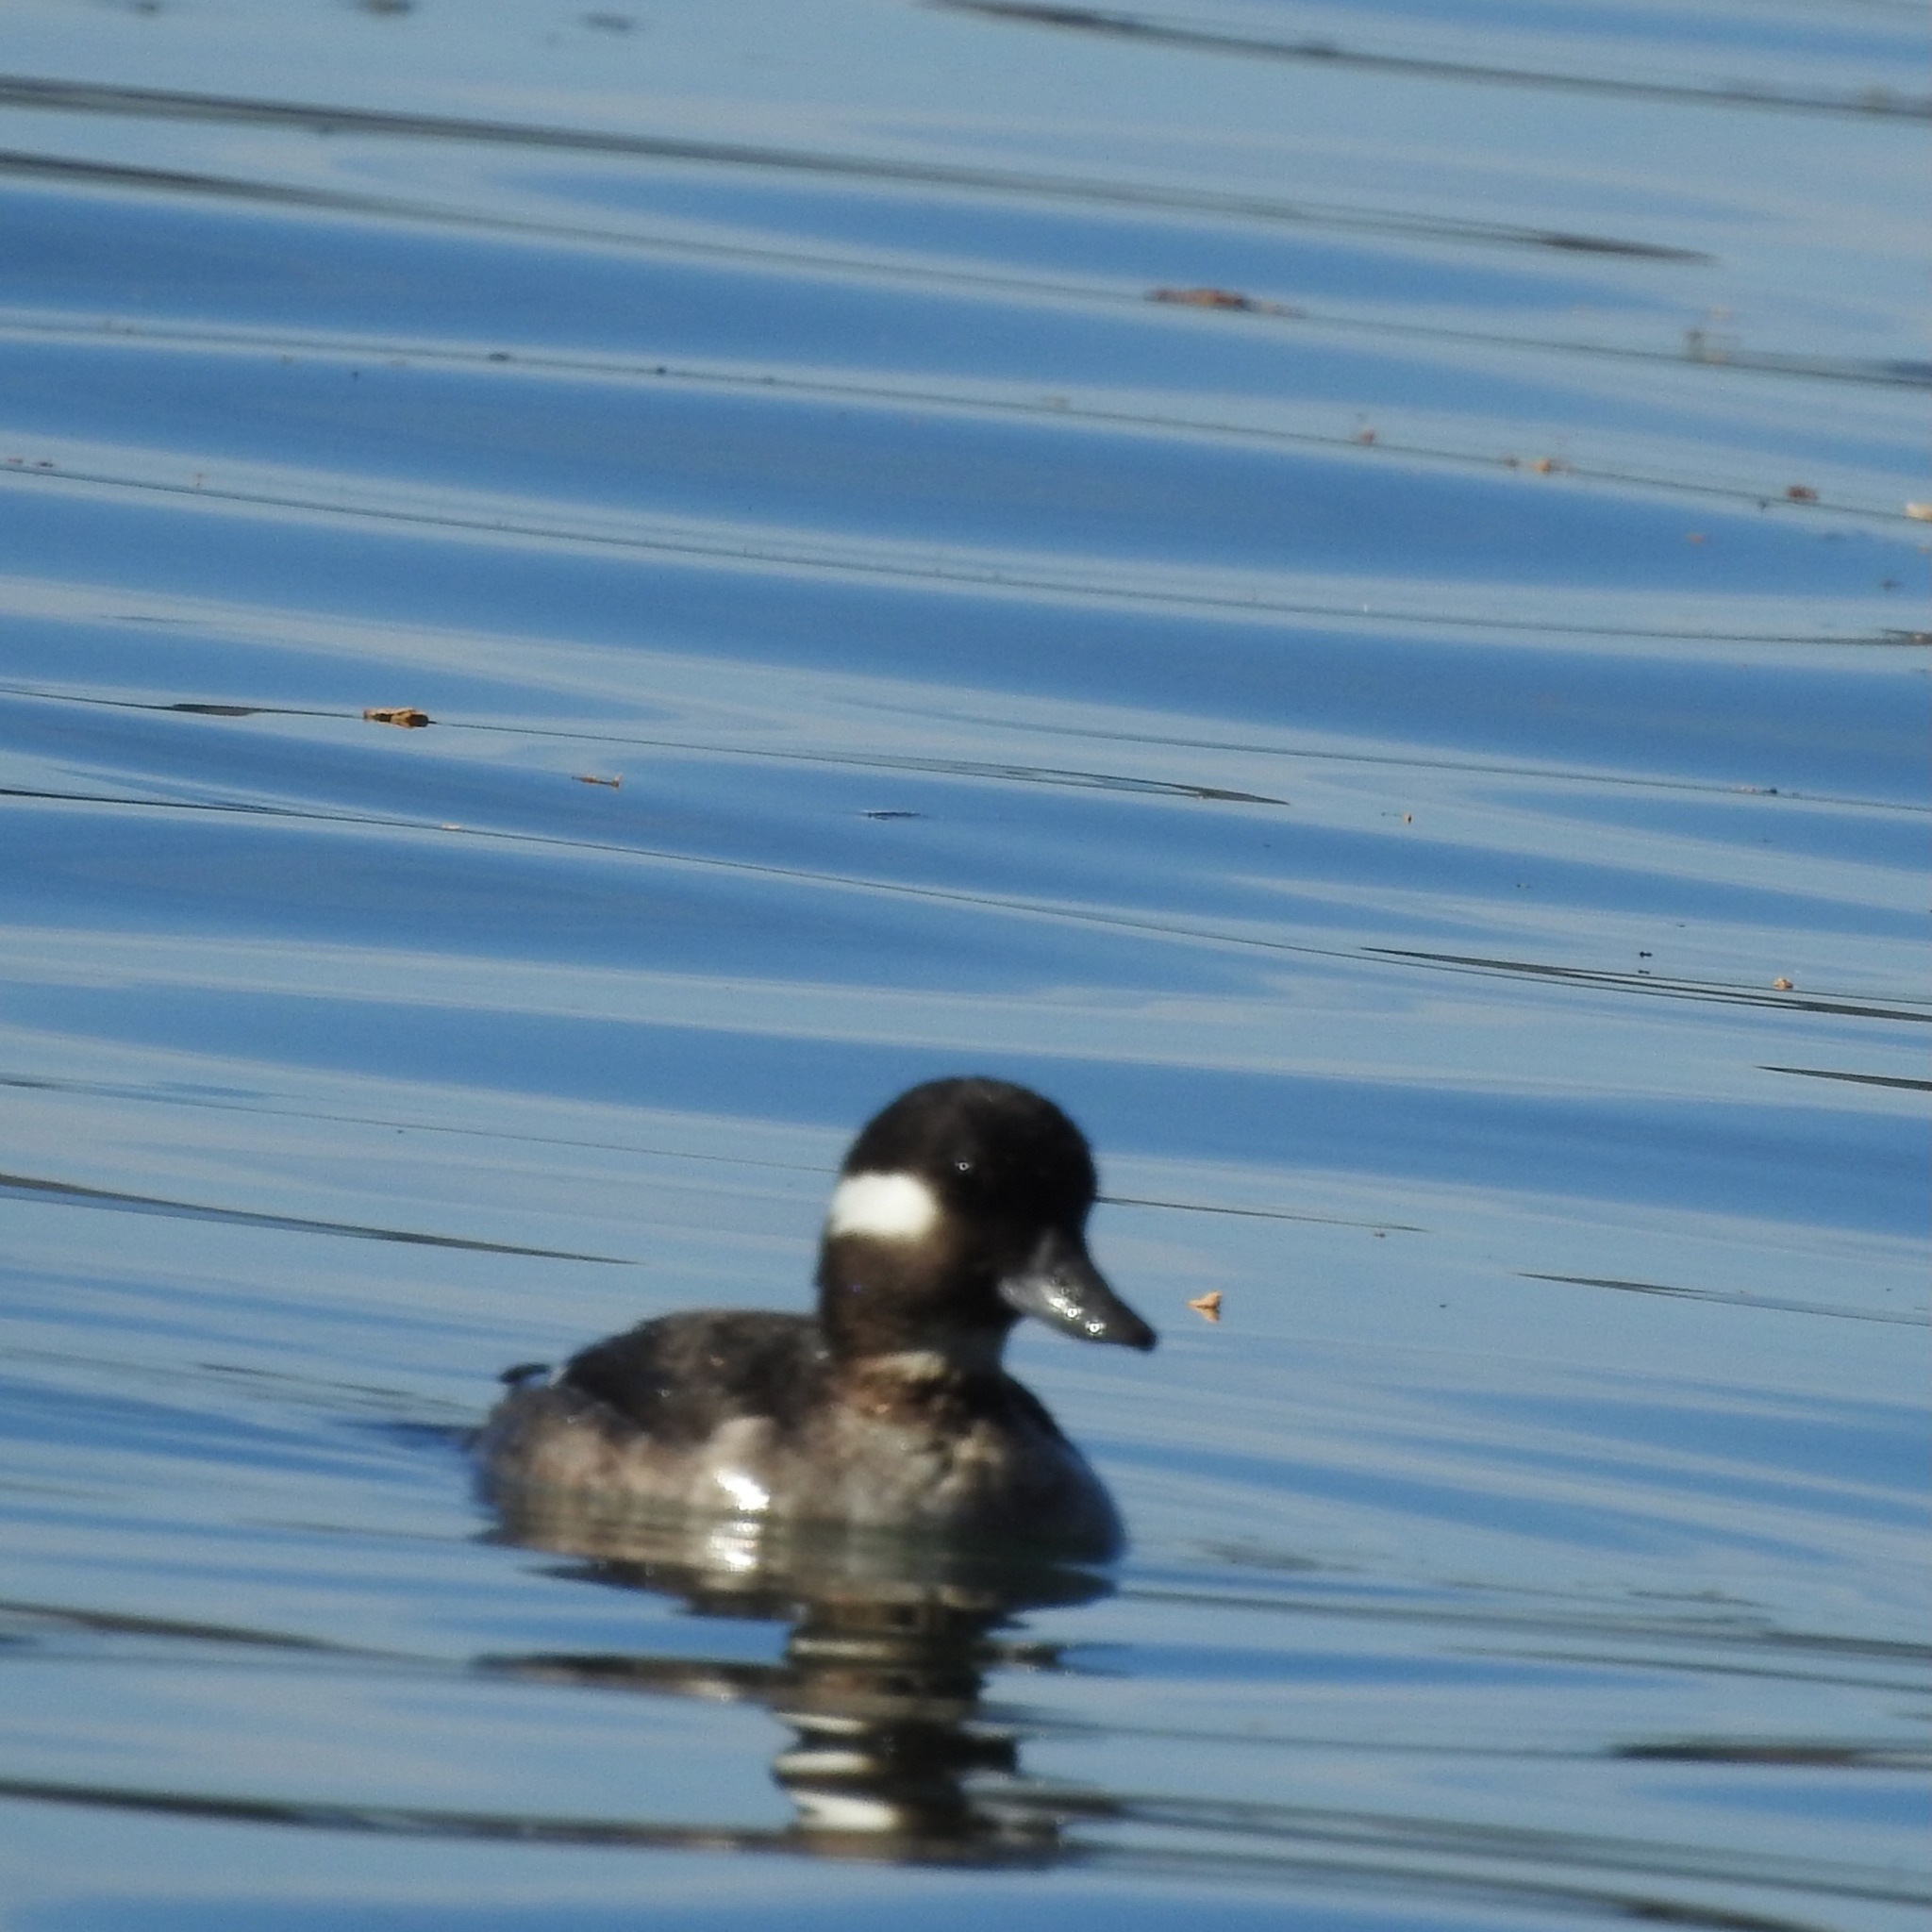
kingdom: Animalia
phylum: Chordata
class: Aves
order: Anseriformes
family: Anatidae
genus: Bucephala
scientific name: Bucephala albeola
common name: Bufflehead
